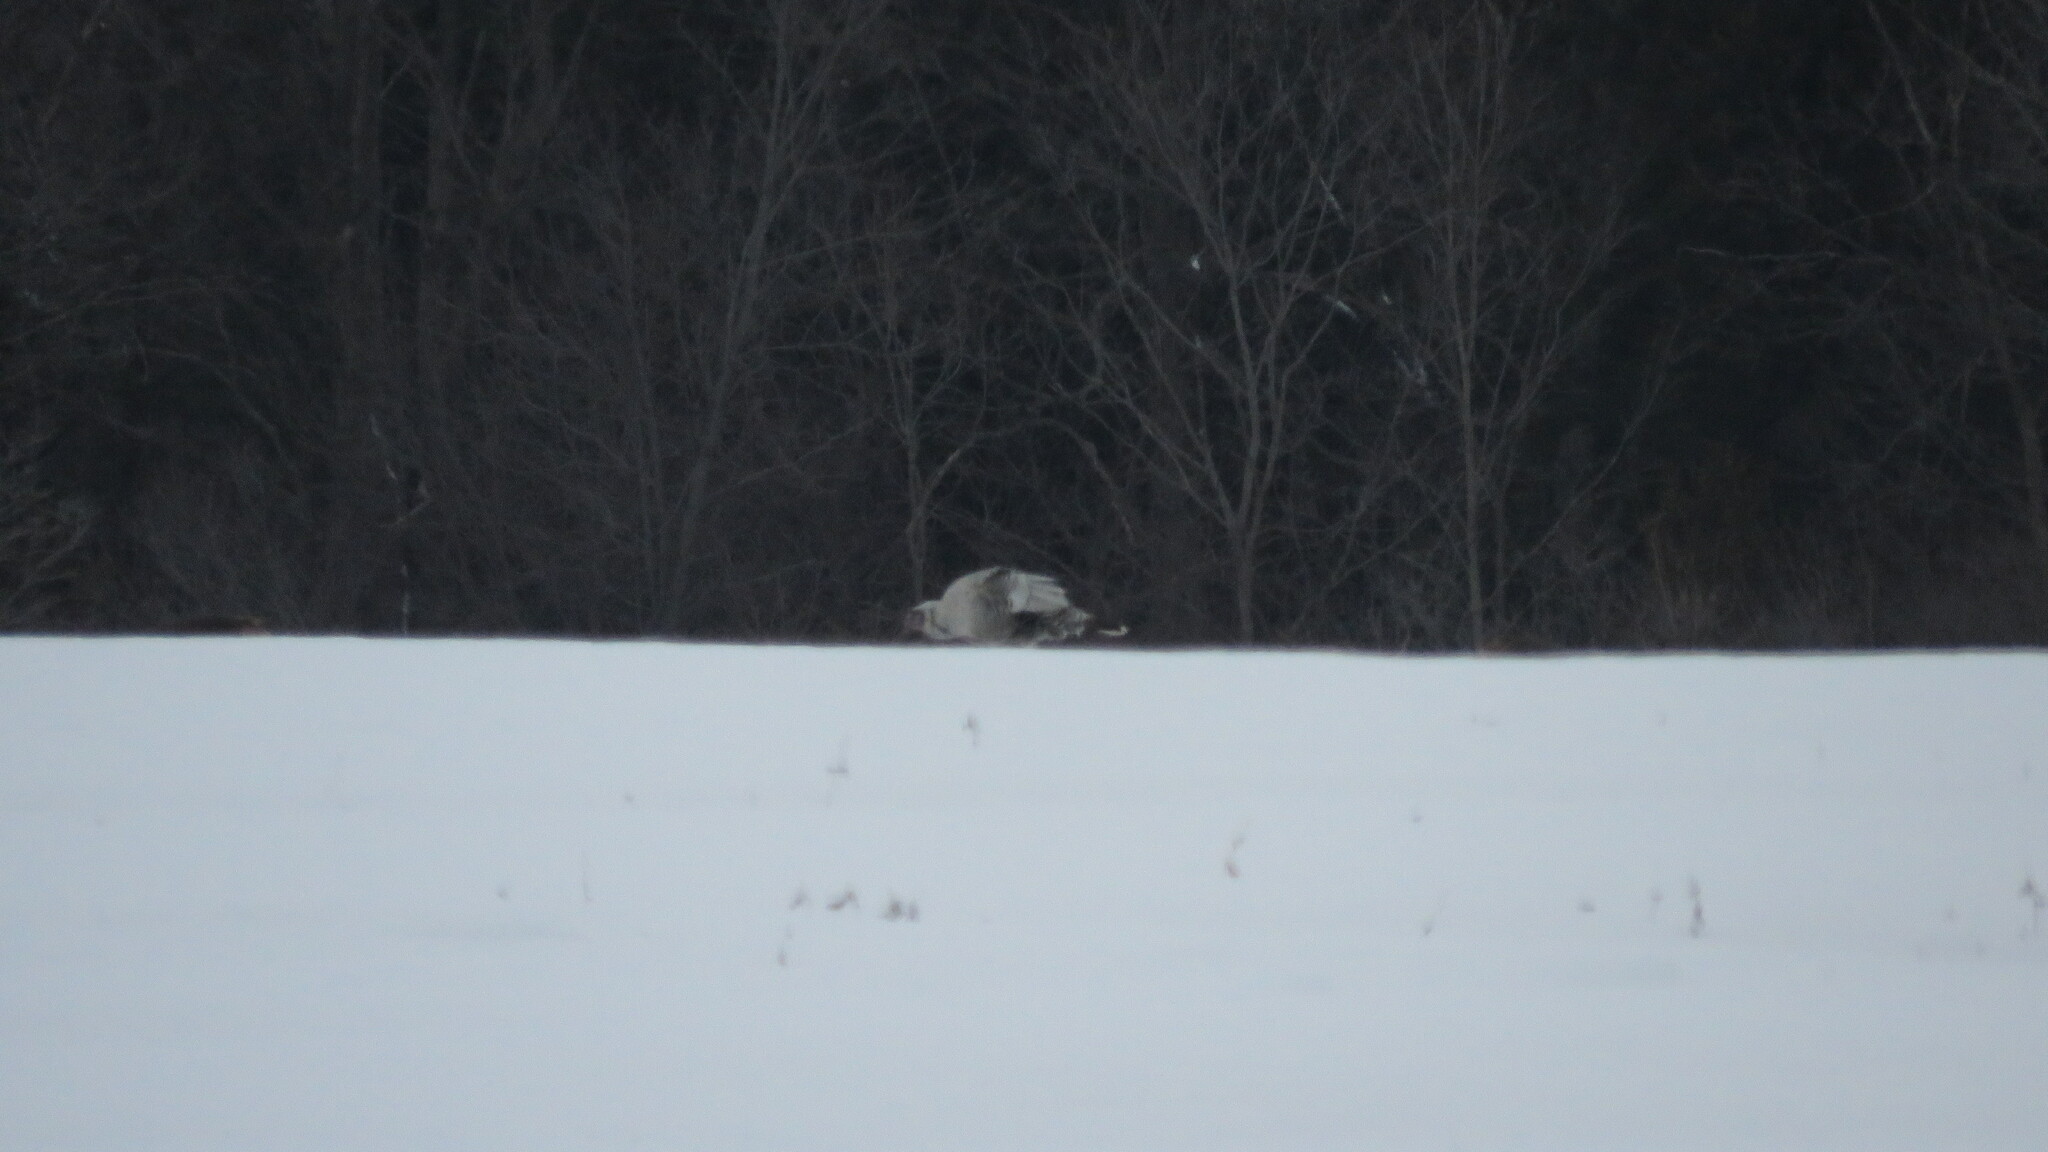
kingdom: Animalia
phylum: Chordata
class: Aves
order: Galliformes
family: Phasianidae
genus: Meleagris
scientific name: Meleagris gallopavo
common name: Wild turkey
